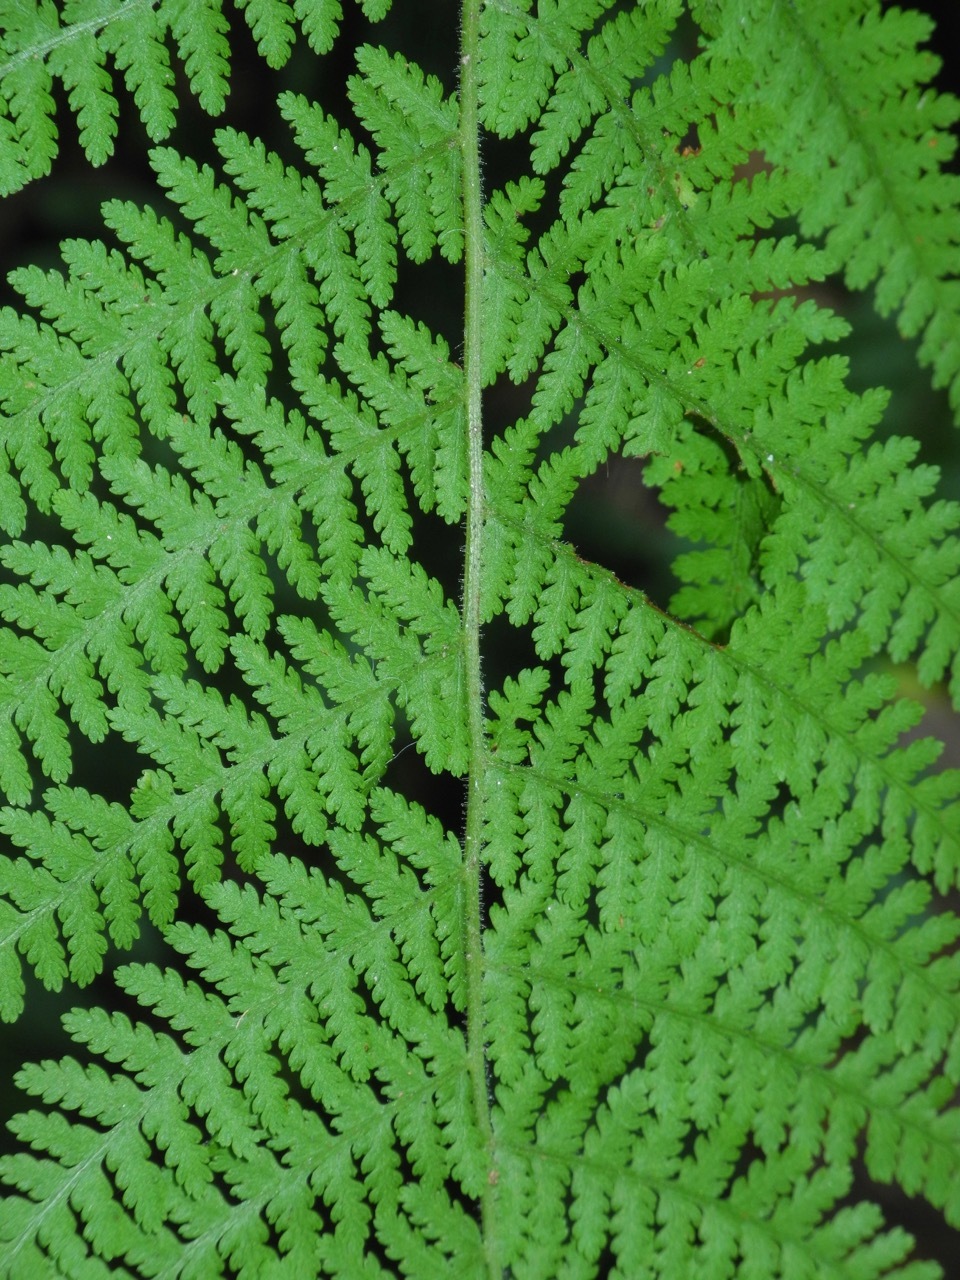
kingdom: Plantae
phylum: Tracheophyta
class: Polypodiopsida
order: Polypodiales
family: Dennstaedtiaceae
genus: Sitobolium
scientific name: Sitobolium punctilobum
